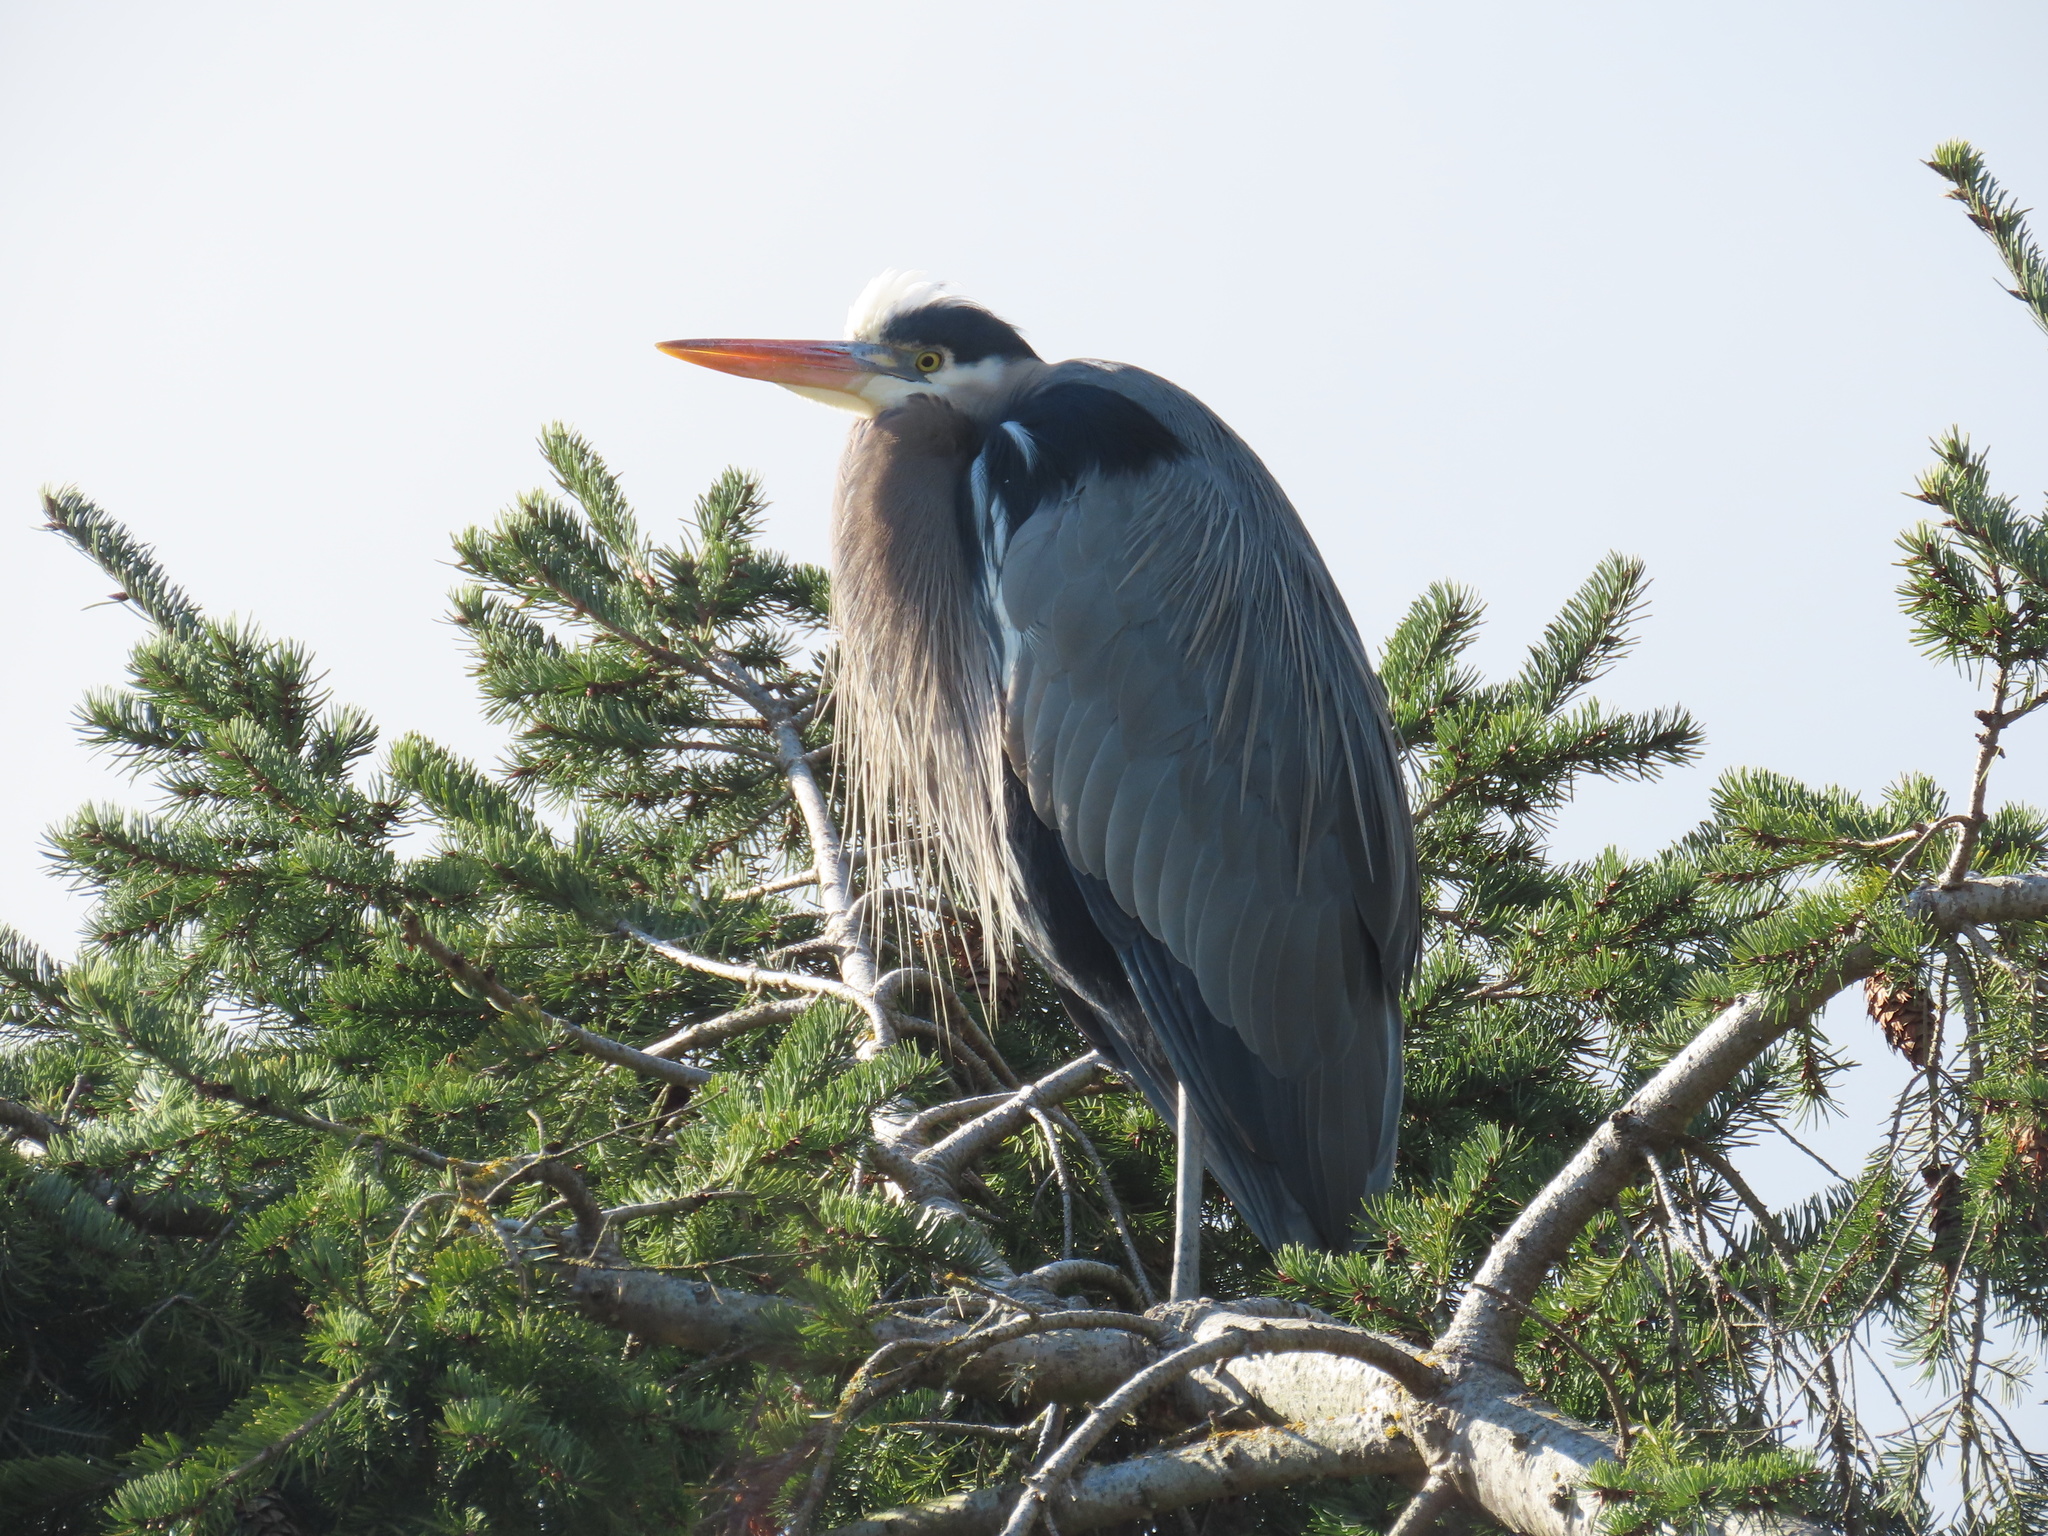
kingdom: Animalia
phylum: Chordata
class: Aves
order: Pelecaniformes
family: Ardeidae
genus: Ardea
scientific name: Ardea herodias
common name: Great blue heron
